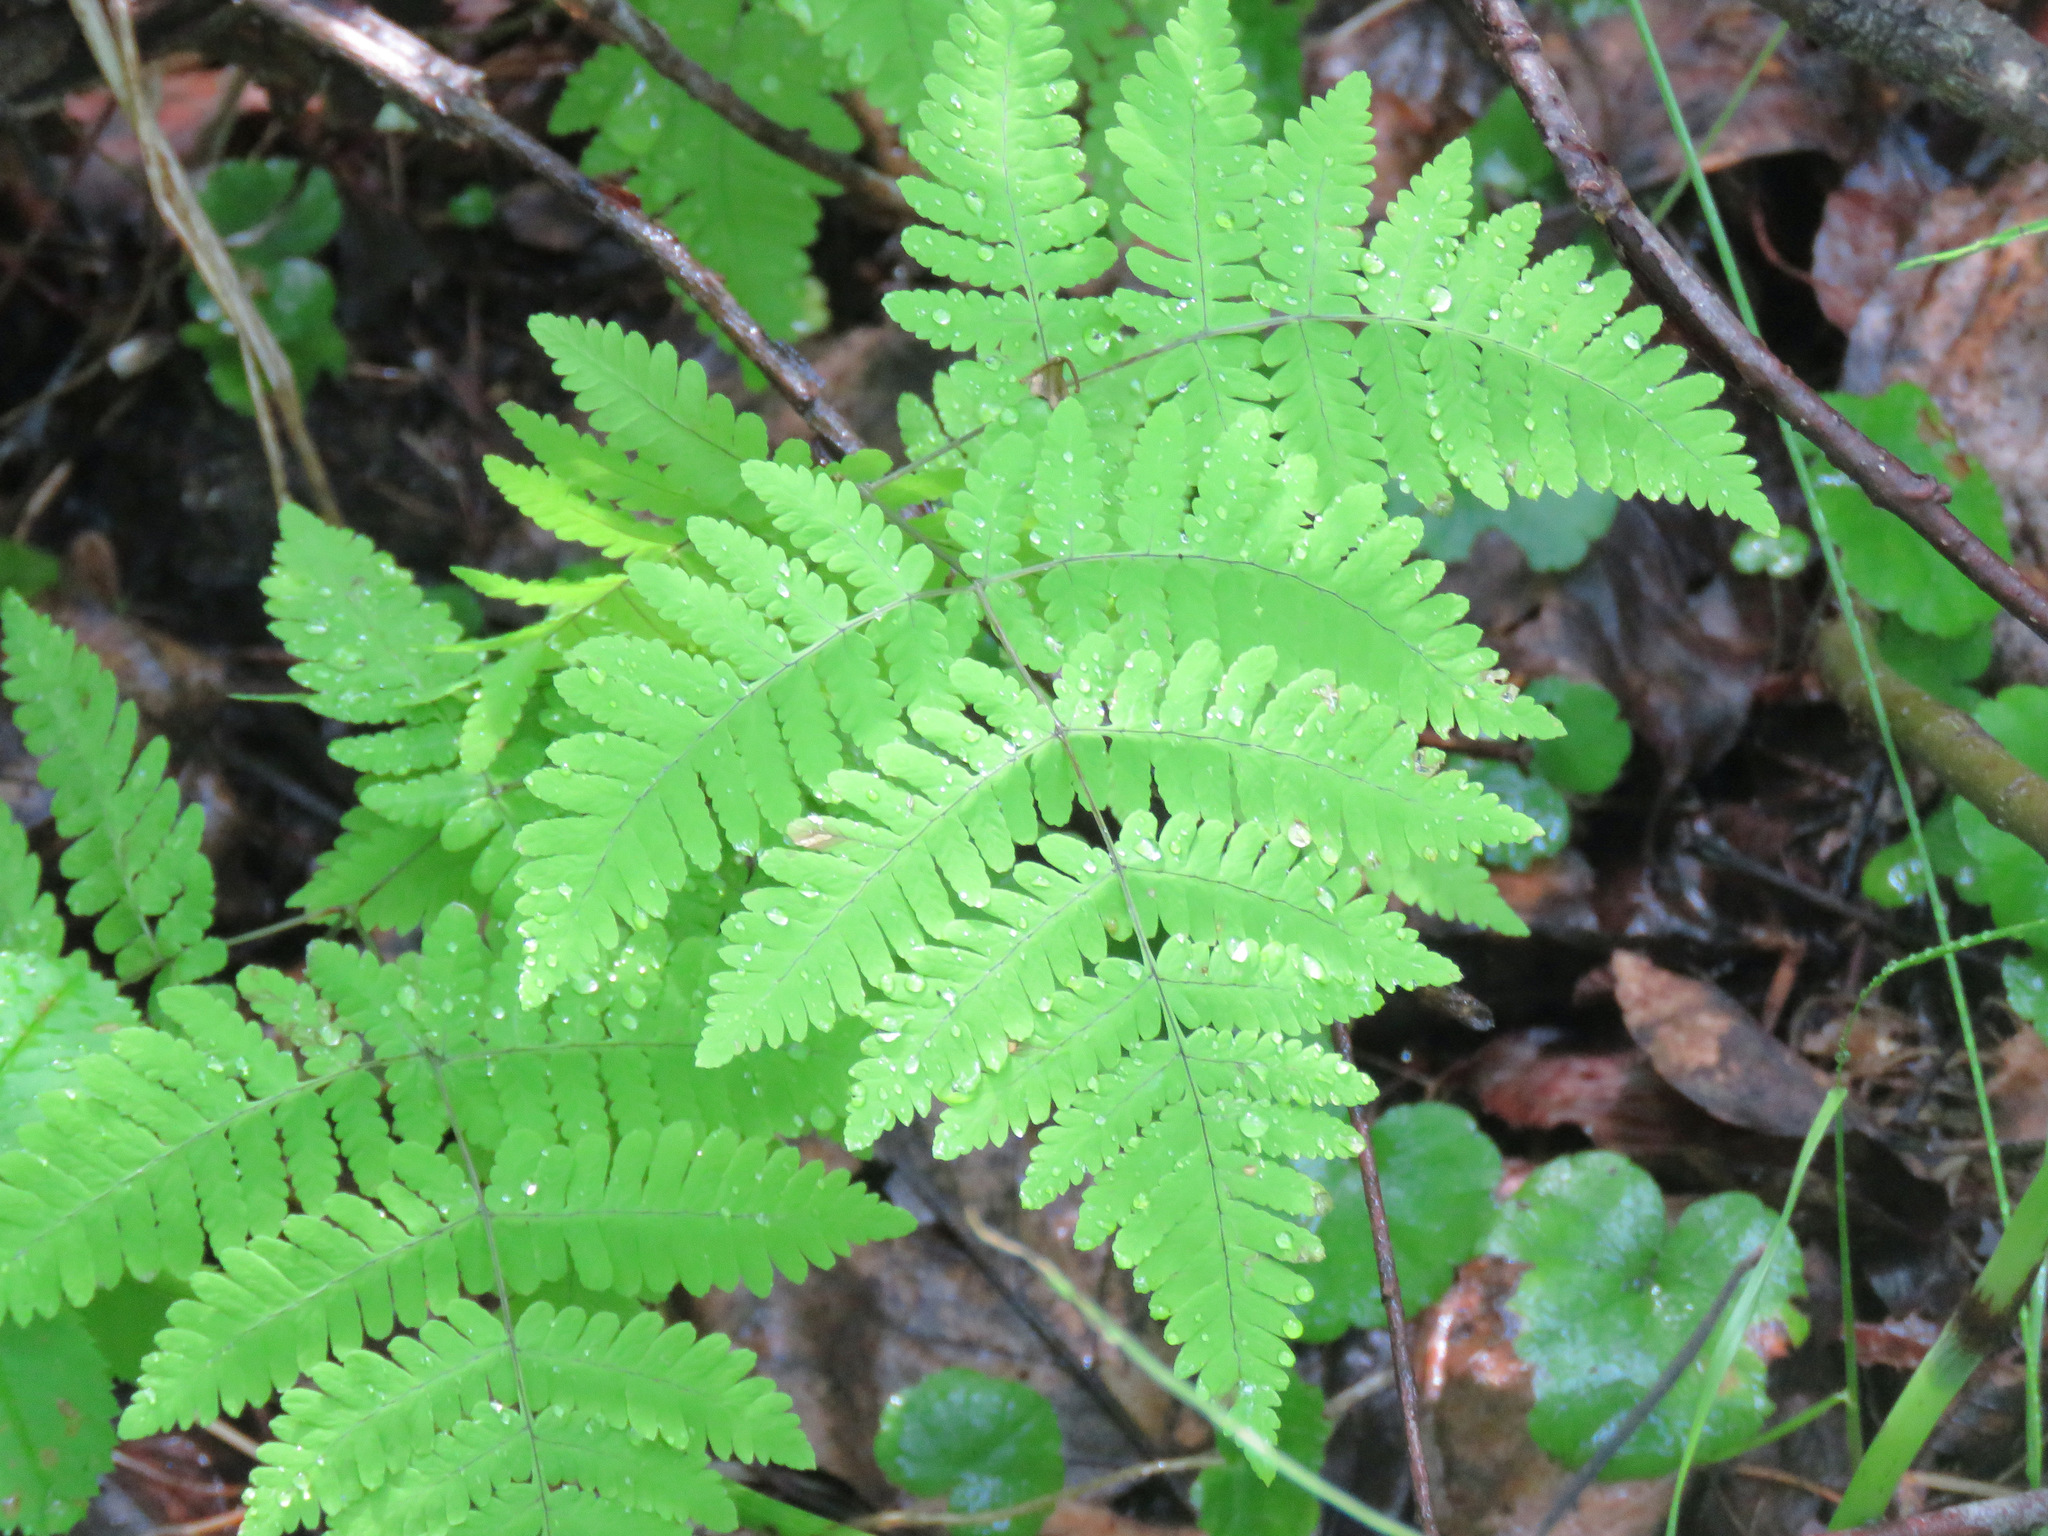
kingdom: Plantae
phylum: Tracheophyta
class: Polypodiopsida
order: Polypodiales
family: Cystopteridaceae
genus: Gymnocarpium
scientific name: Gymnocarpium dryopteris
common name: Oak fern
